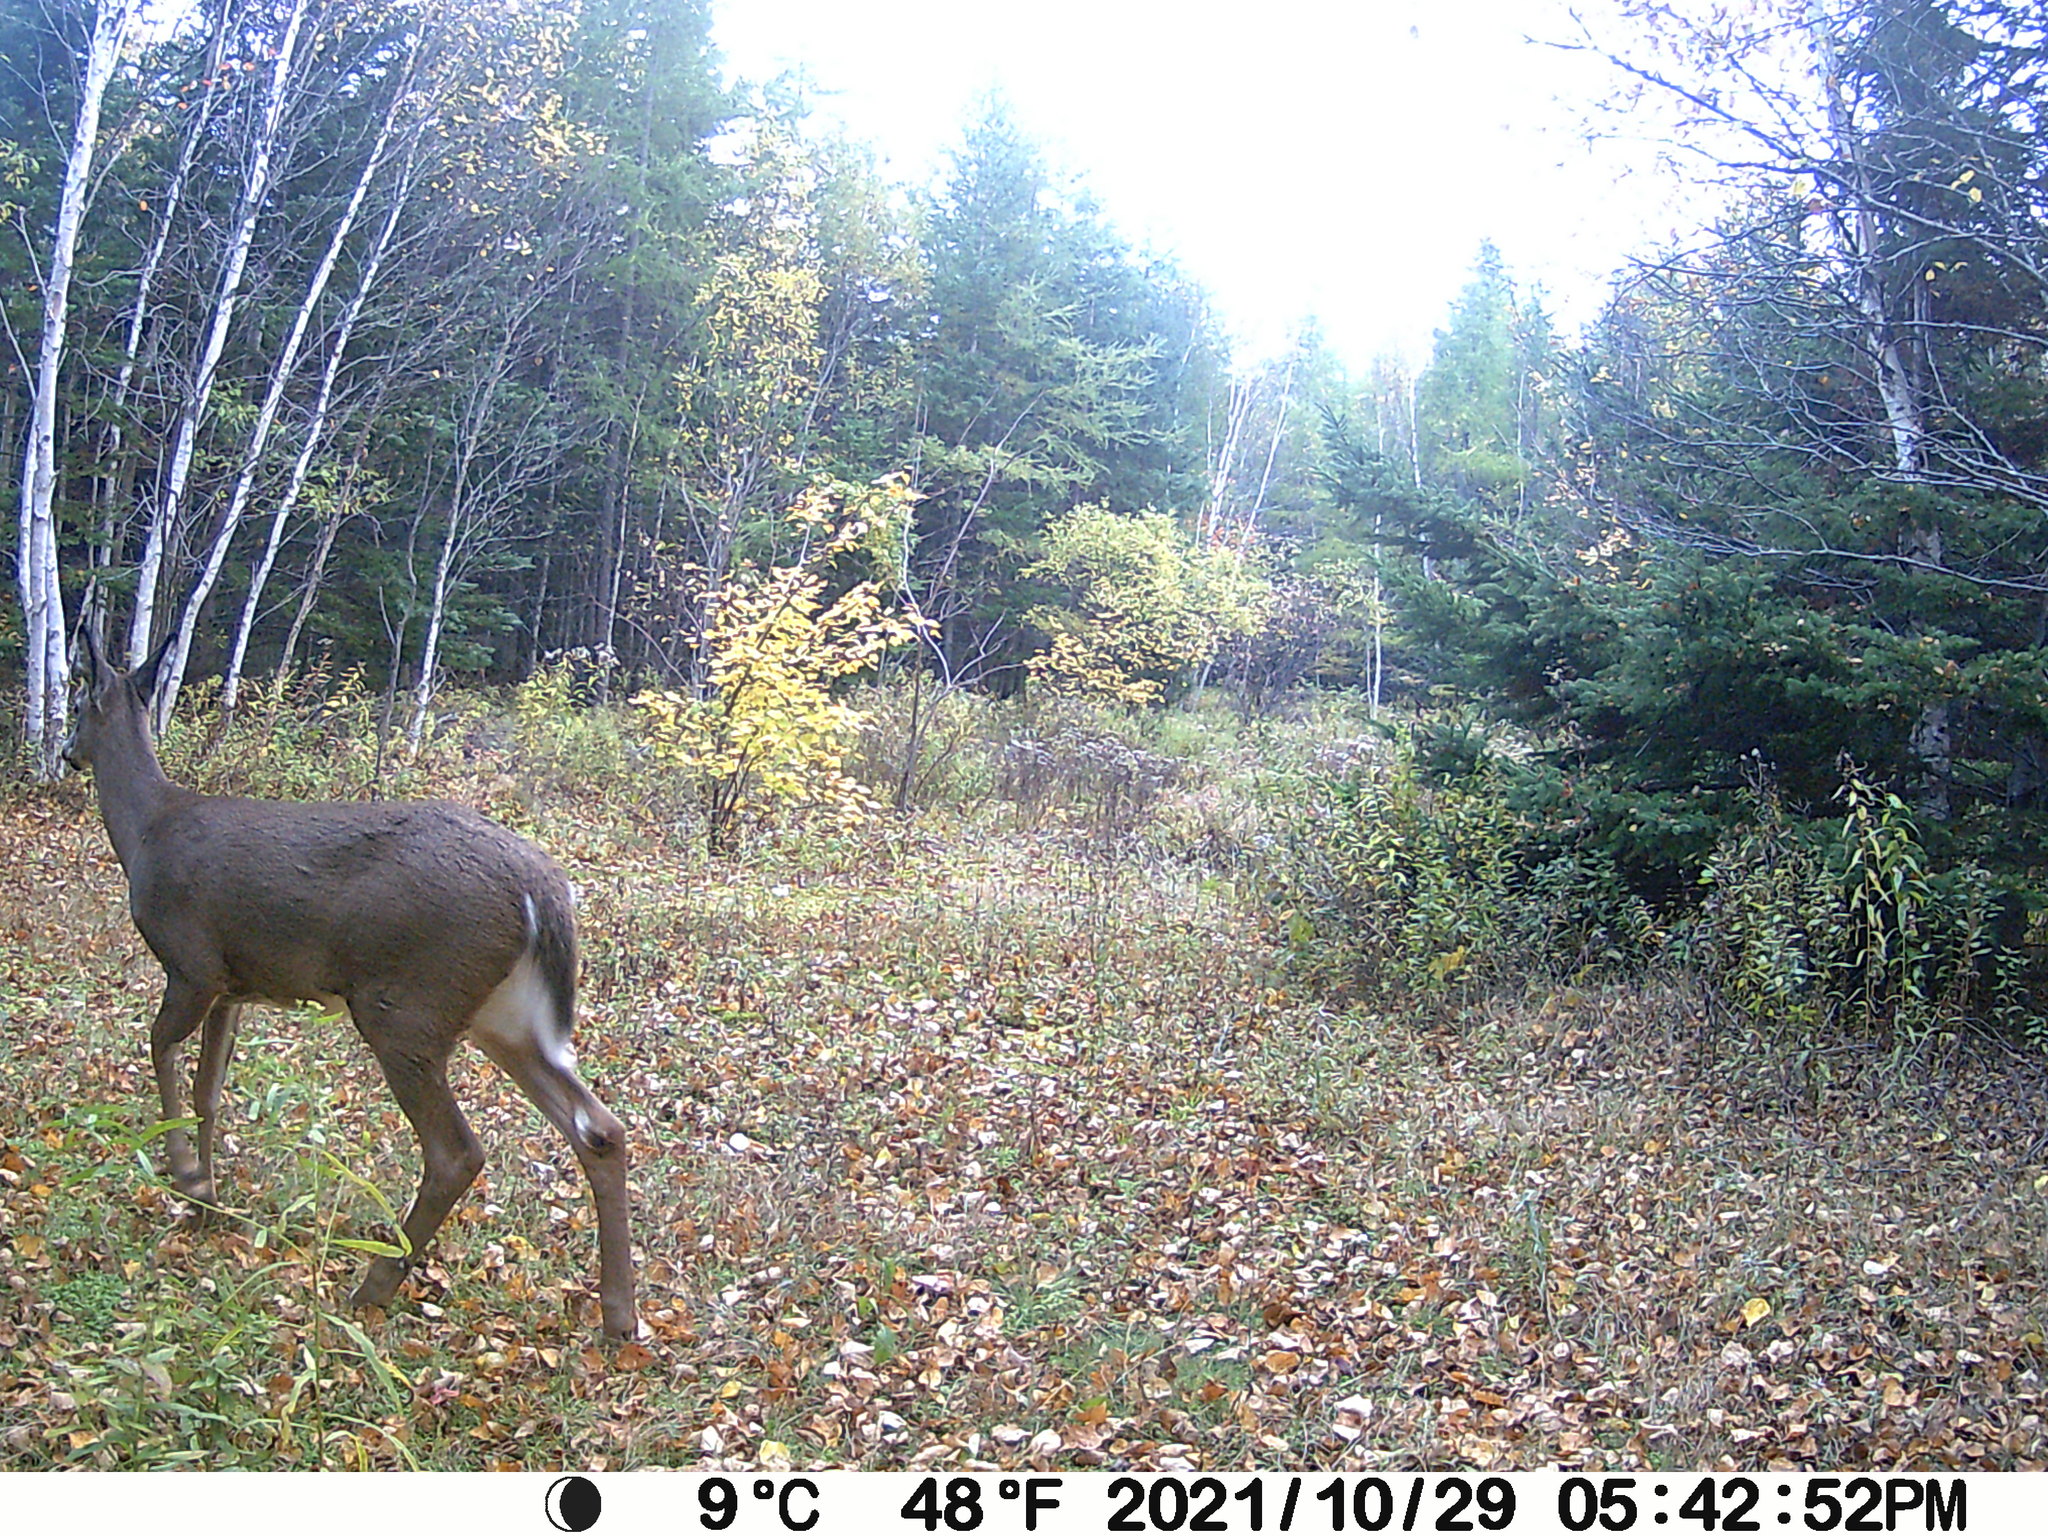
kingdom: Animalia
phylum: Chordata
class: Mammalia
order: Artiodactyla
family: Cervidae
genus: Odocoileus
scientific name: Odocoileus virginianus
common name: White-tailed deer
